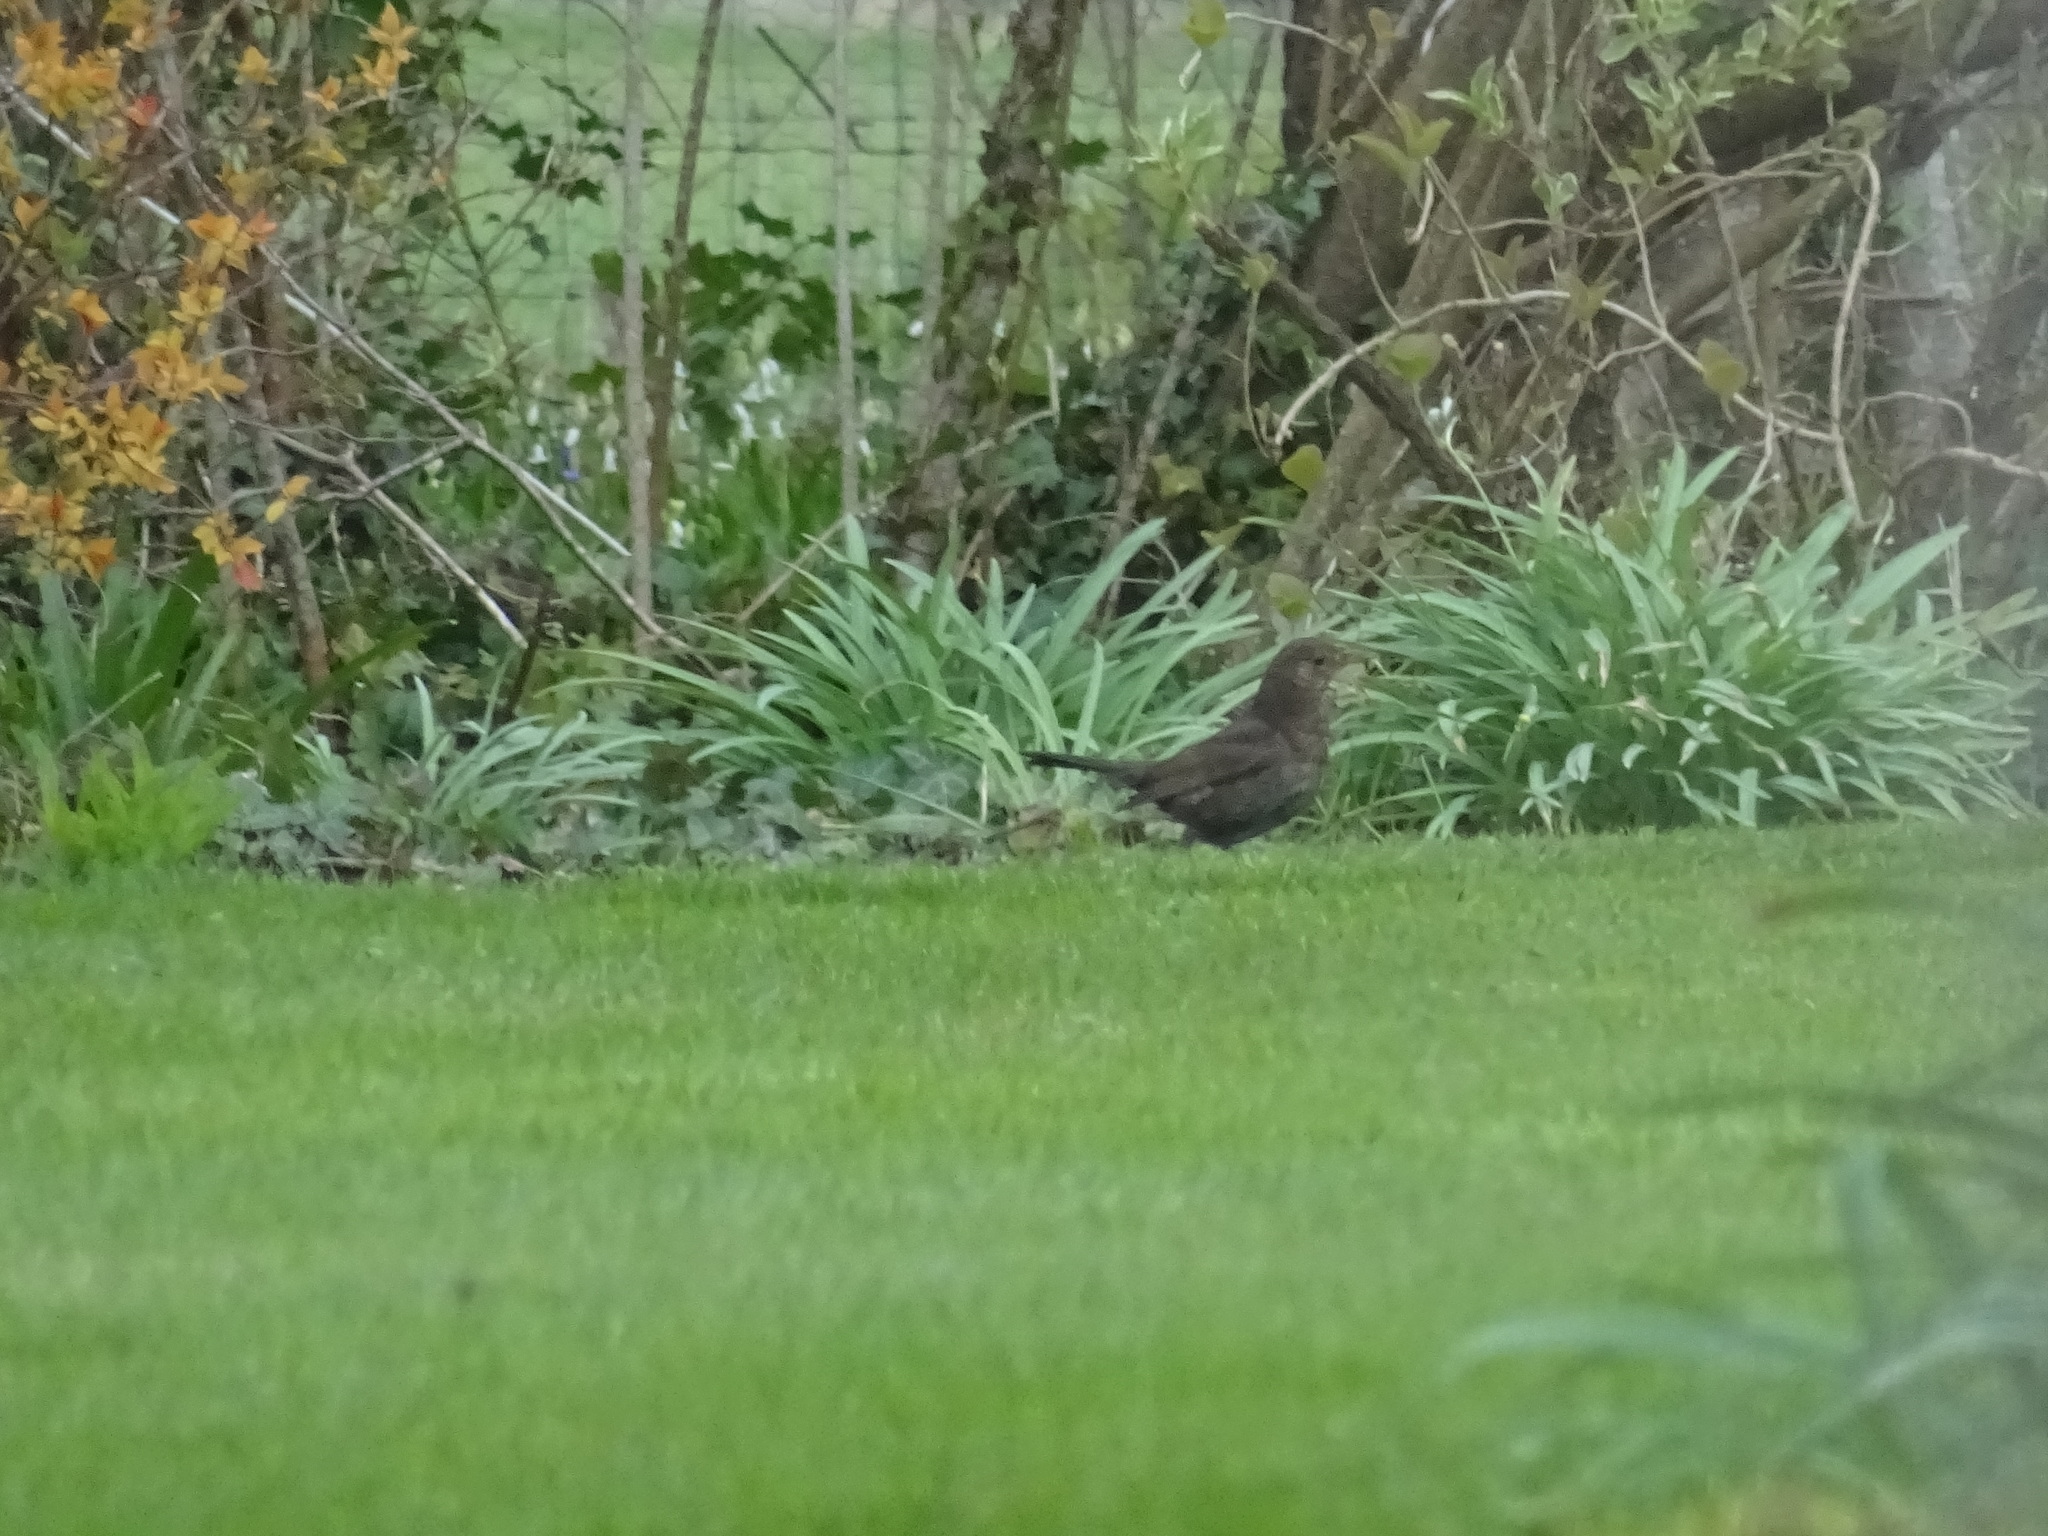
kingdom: Animalia
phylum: Chordata
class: Aves
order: Passeriformes
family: Turdidae
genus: Turdus
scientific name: Turdus merula
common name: Common blackbird
